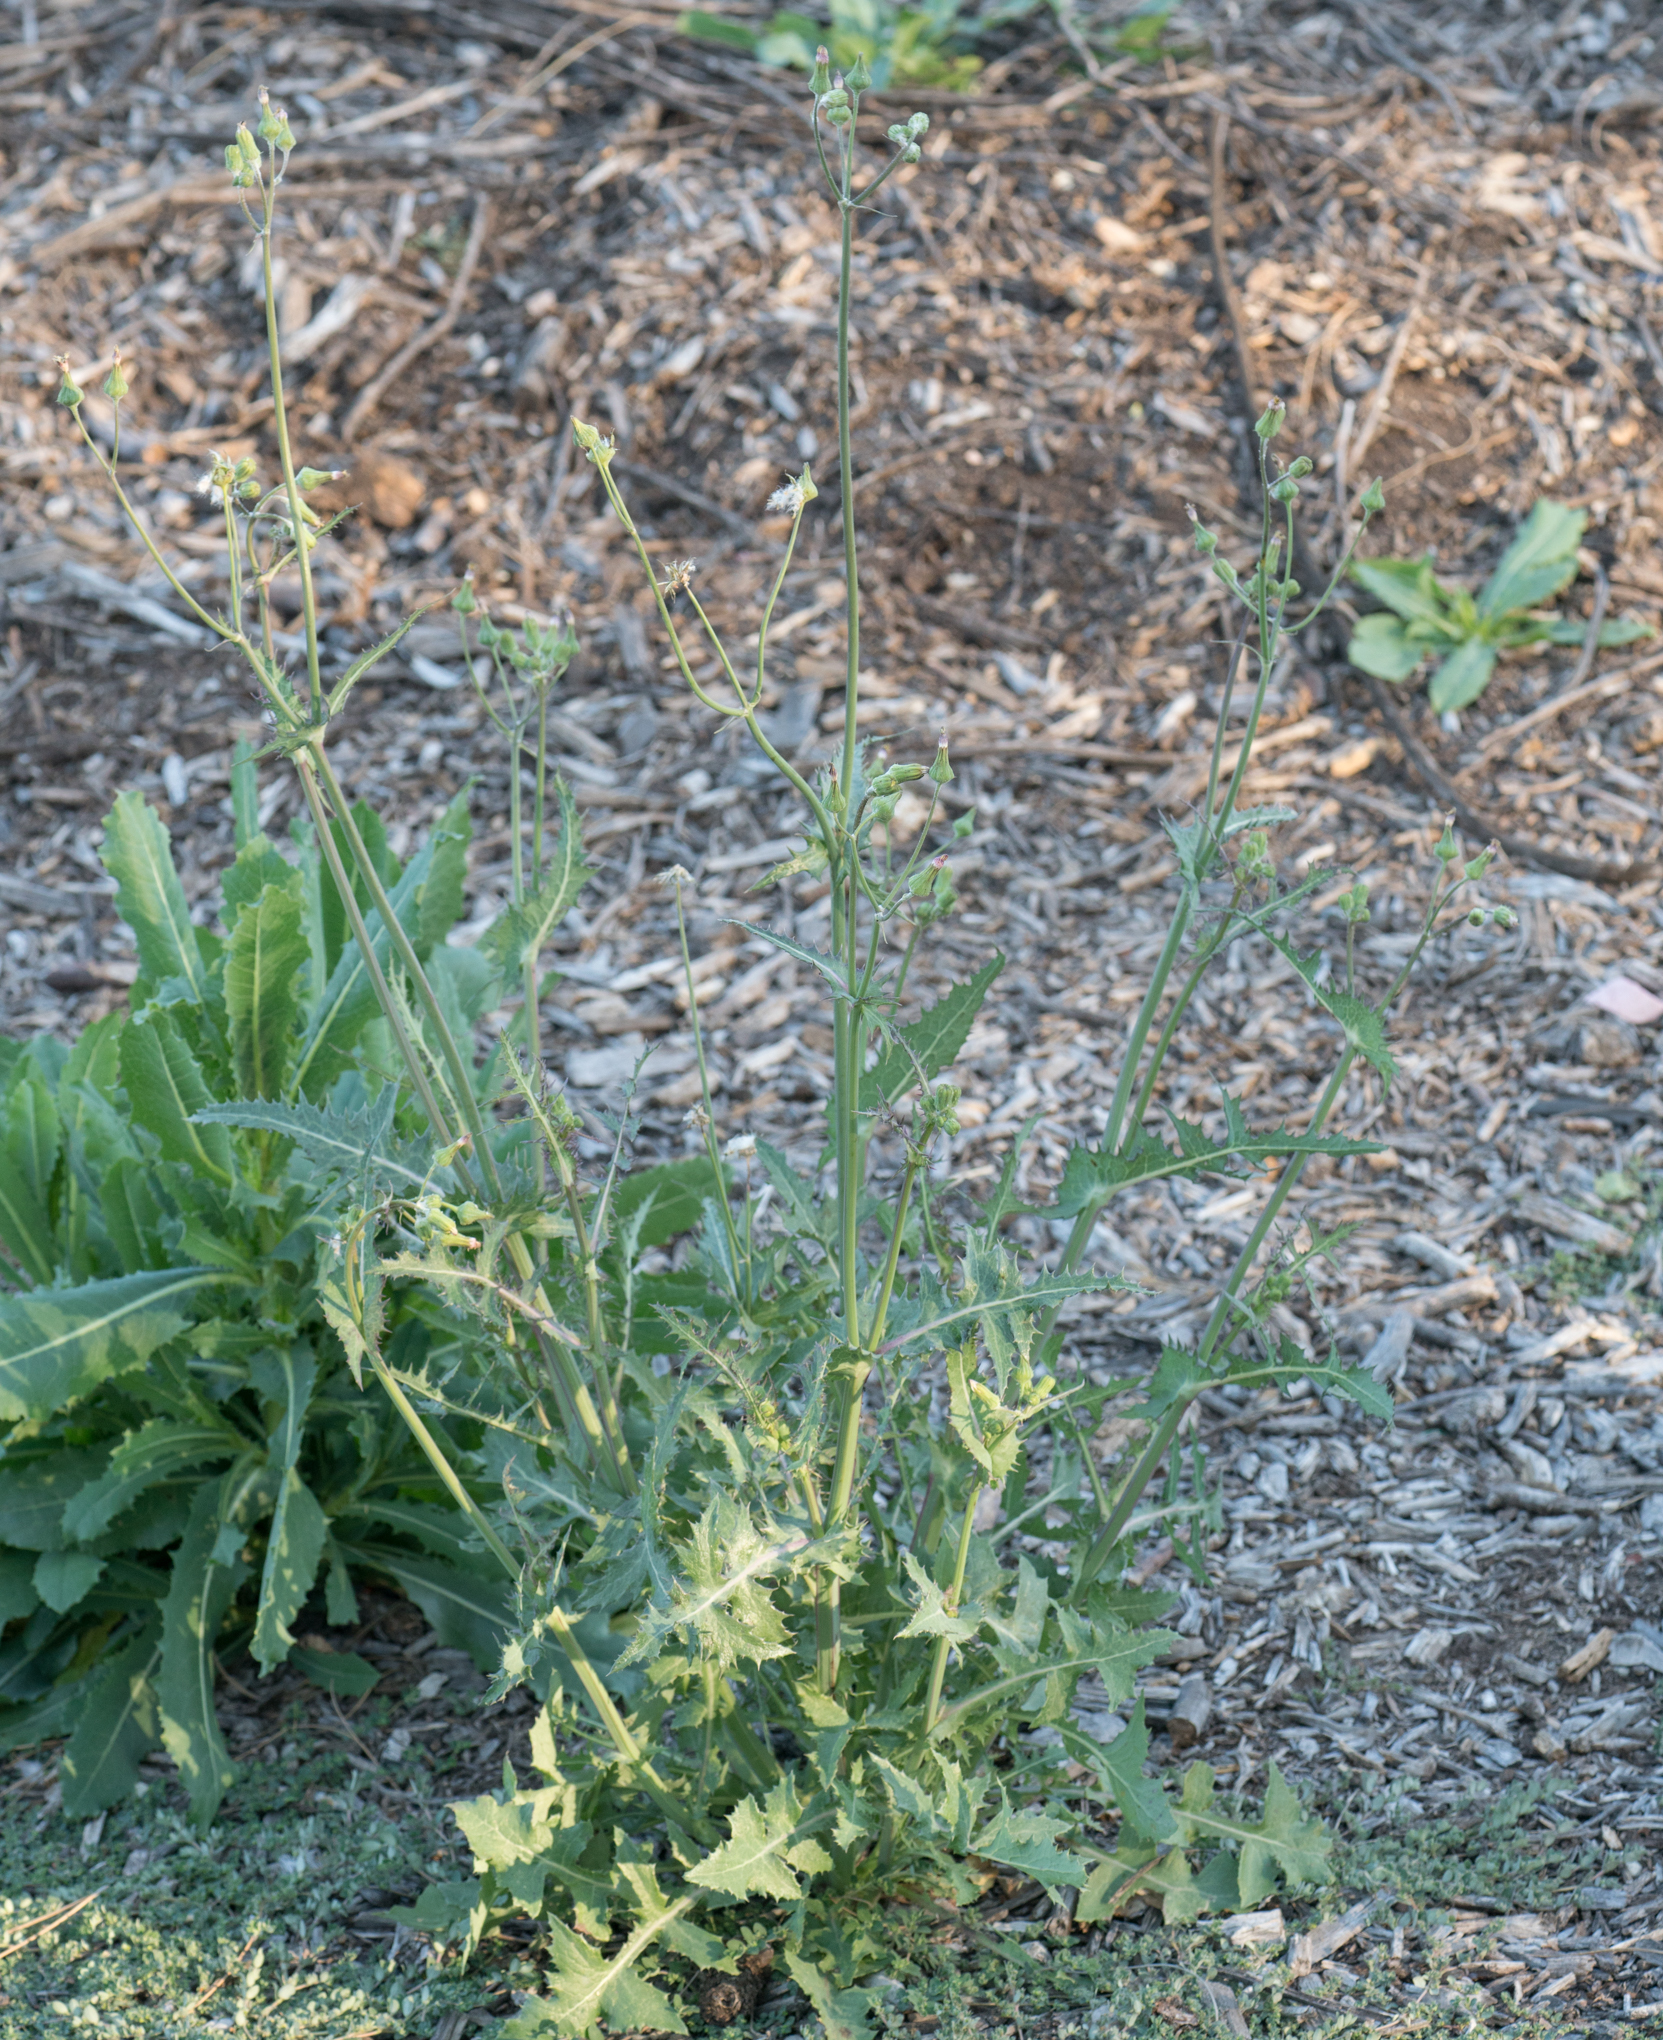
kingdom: Plantae
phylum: Tracheophyta
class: Magnoliopsida
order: Asterales
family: Asteraceae
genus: Sonchus
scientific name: Sonchus oleraceus
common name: Common sowthistle
